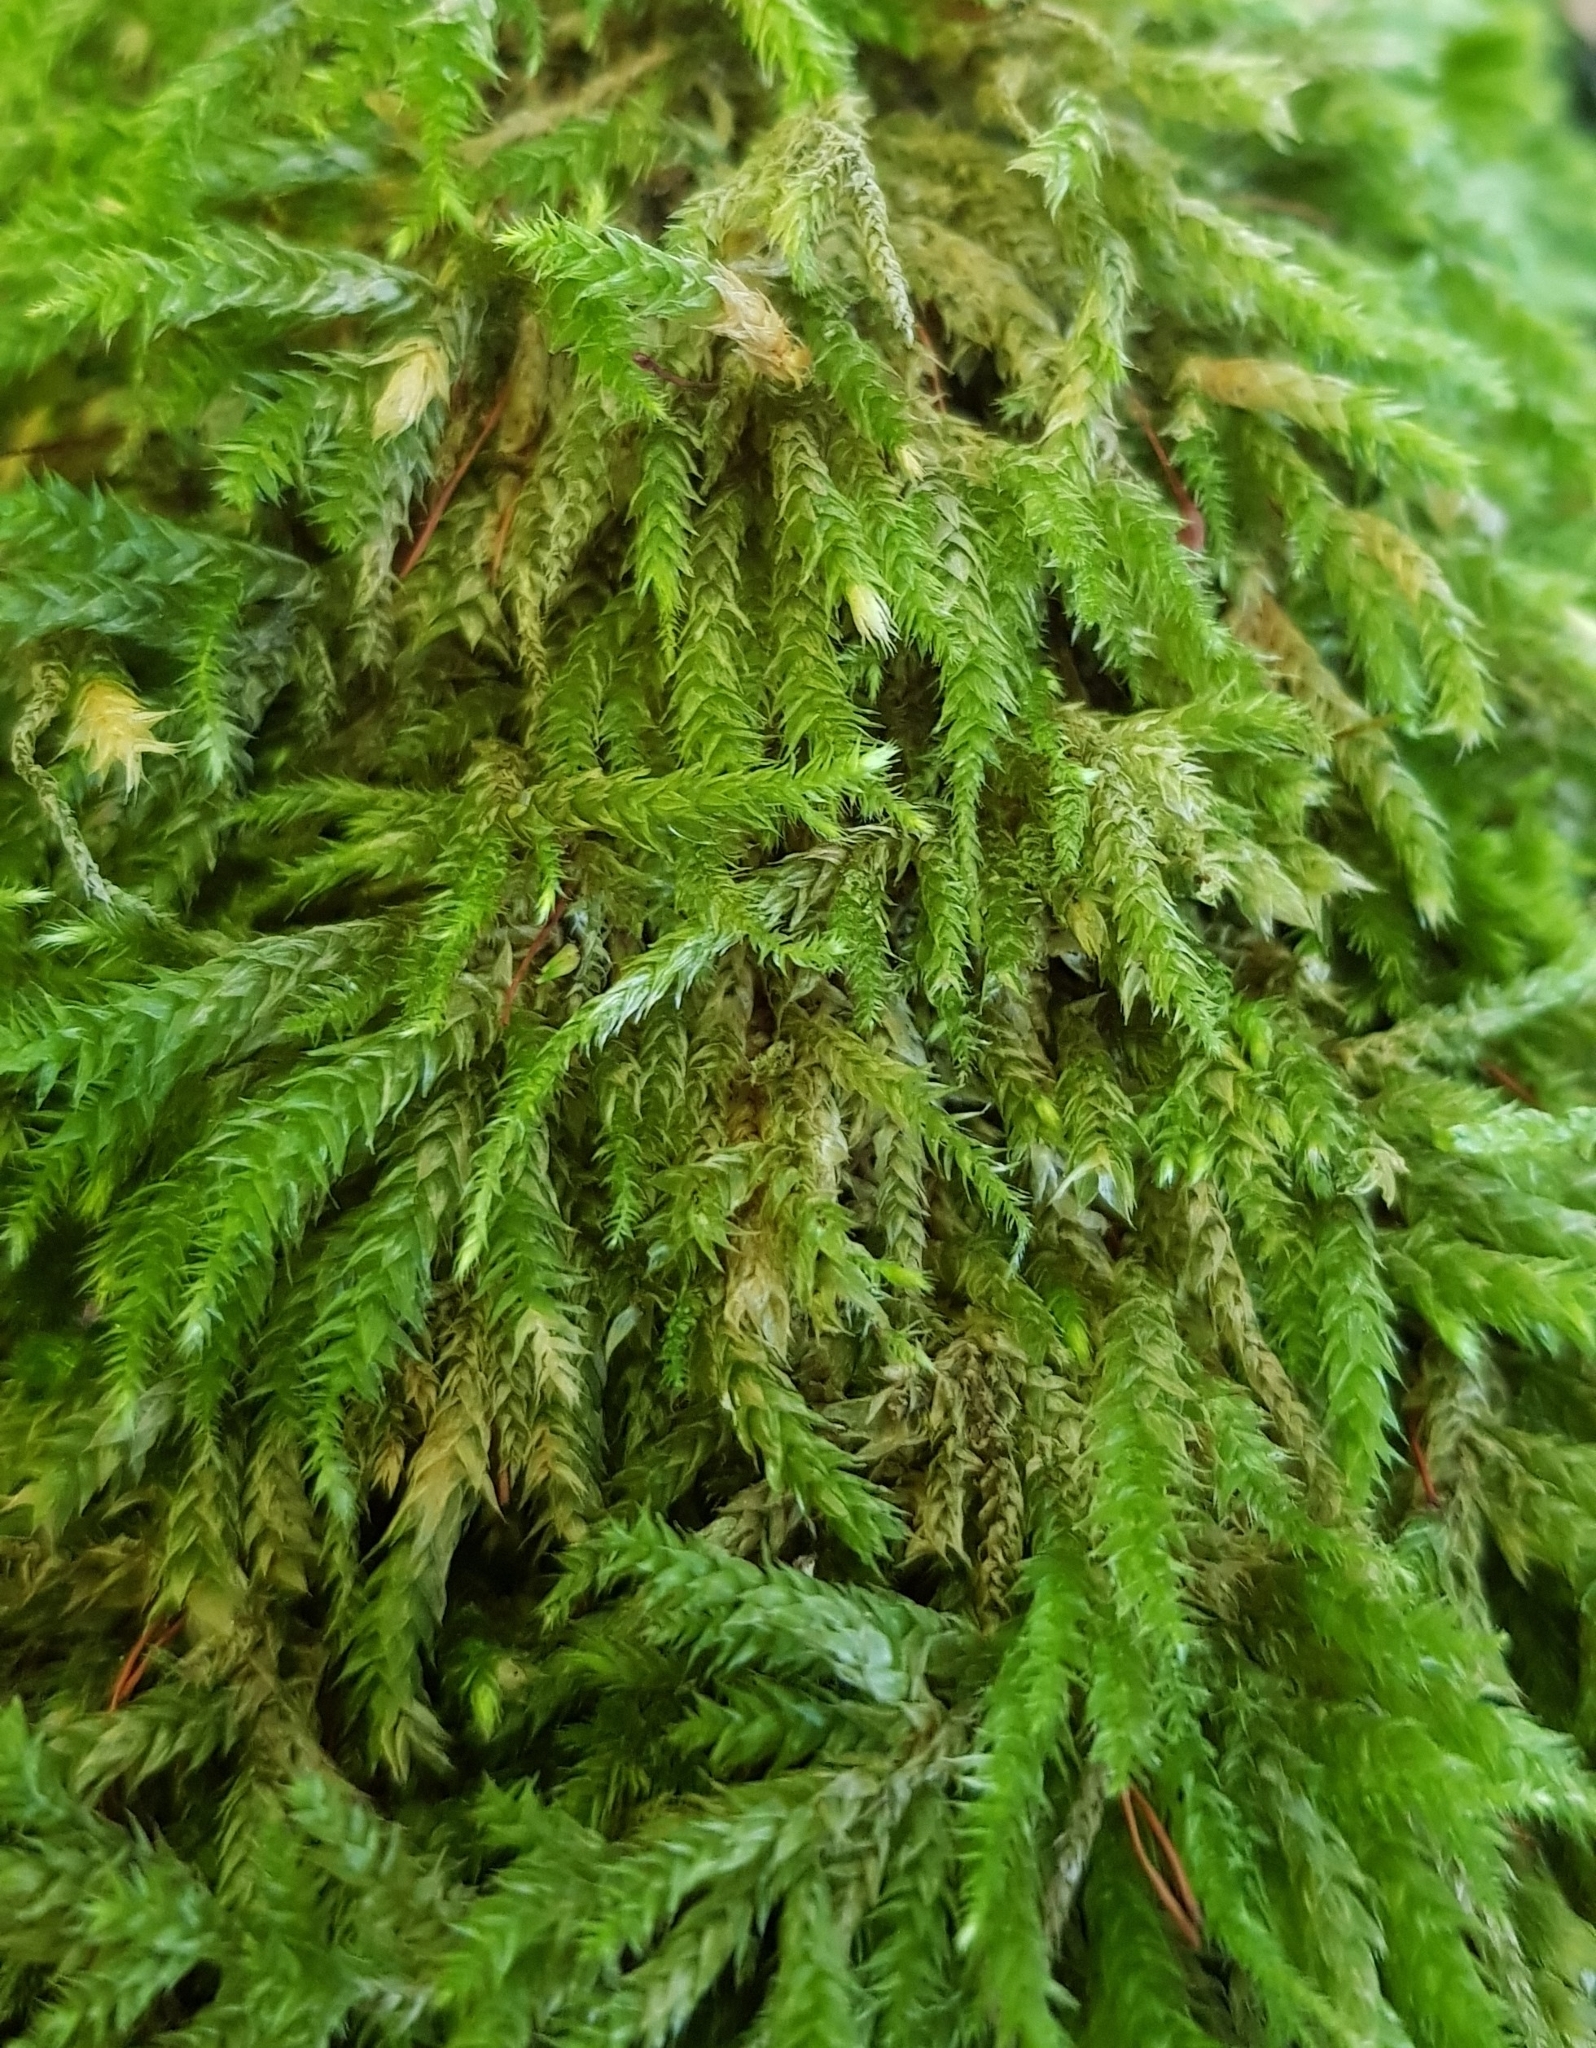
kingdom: Plantae
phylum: Bryophyta
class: Bryopsida
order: Hypnales
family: Brachytheciaceae
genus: Brachythecium
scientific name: Brachythecium rutabulum
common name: Rough-stalked feather-moss
